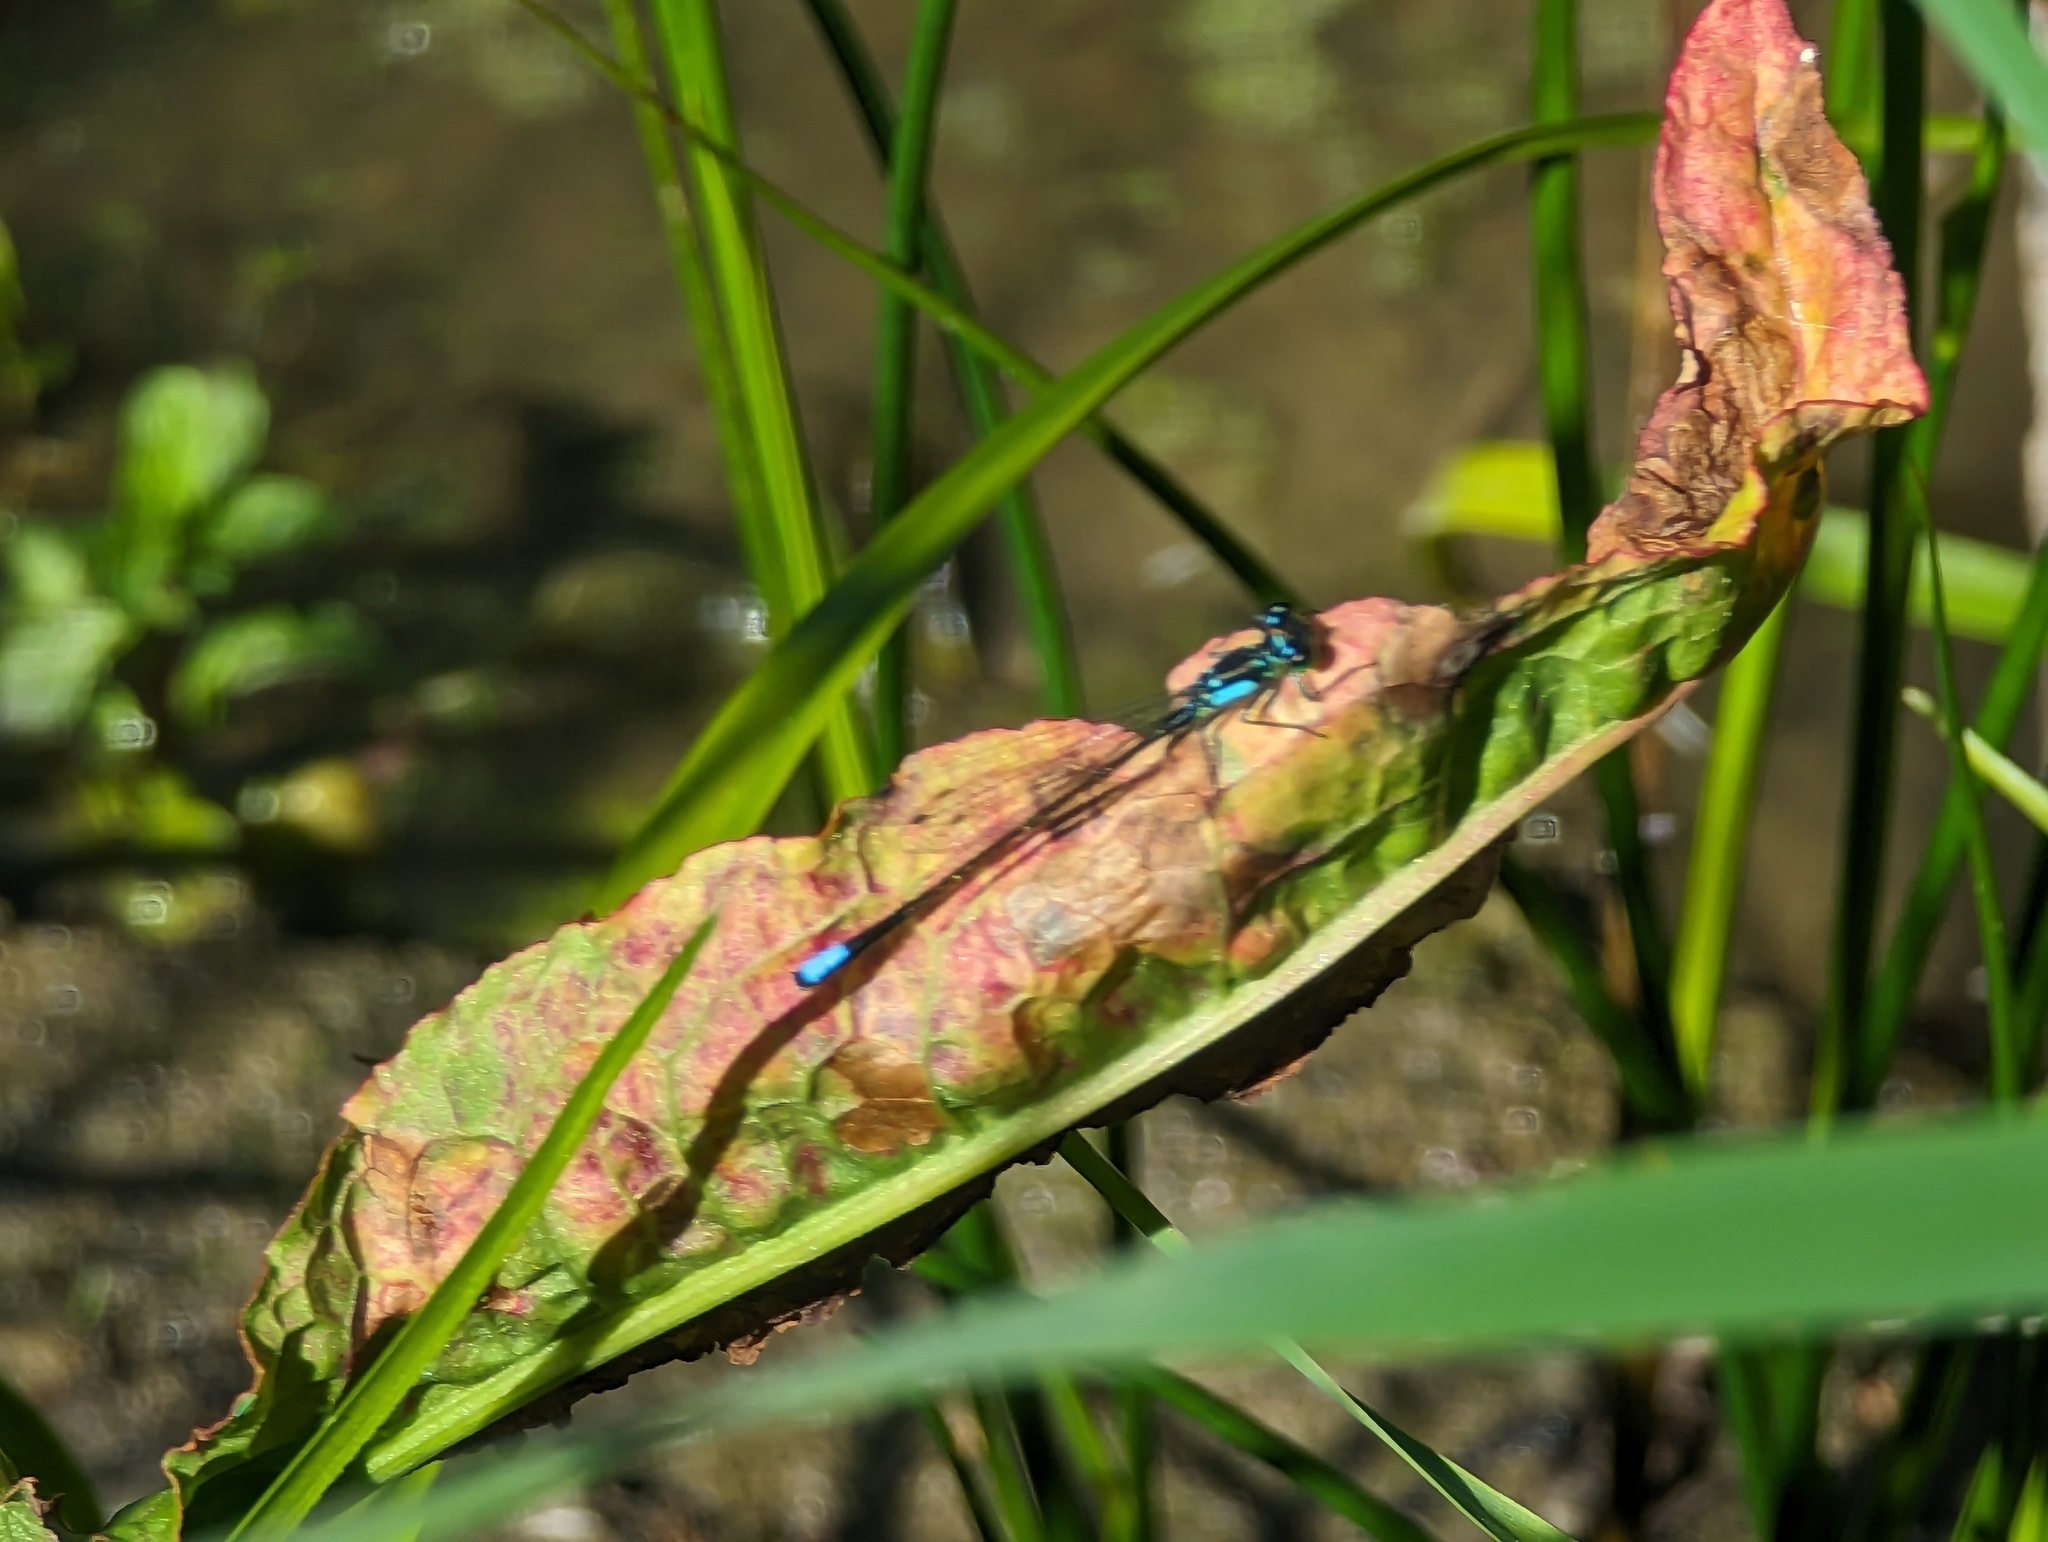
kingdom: Animalia
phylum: Arthropoda
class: Insecta
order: Odonata
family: Coenagrionidae
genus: Ischnura
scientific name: Ischnura cervula
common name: Pacific forktail
